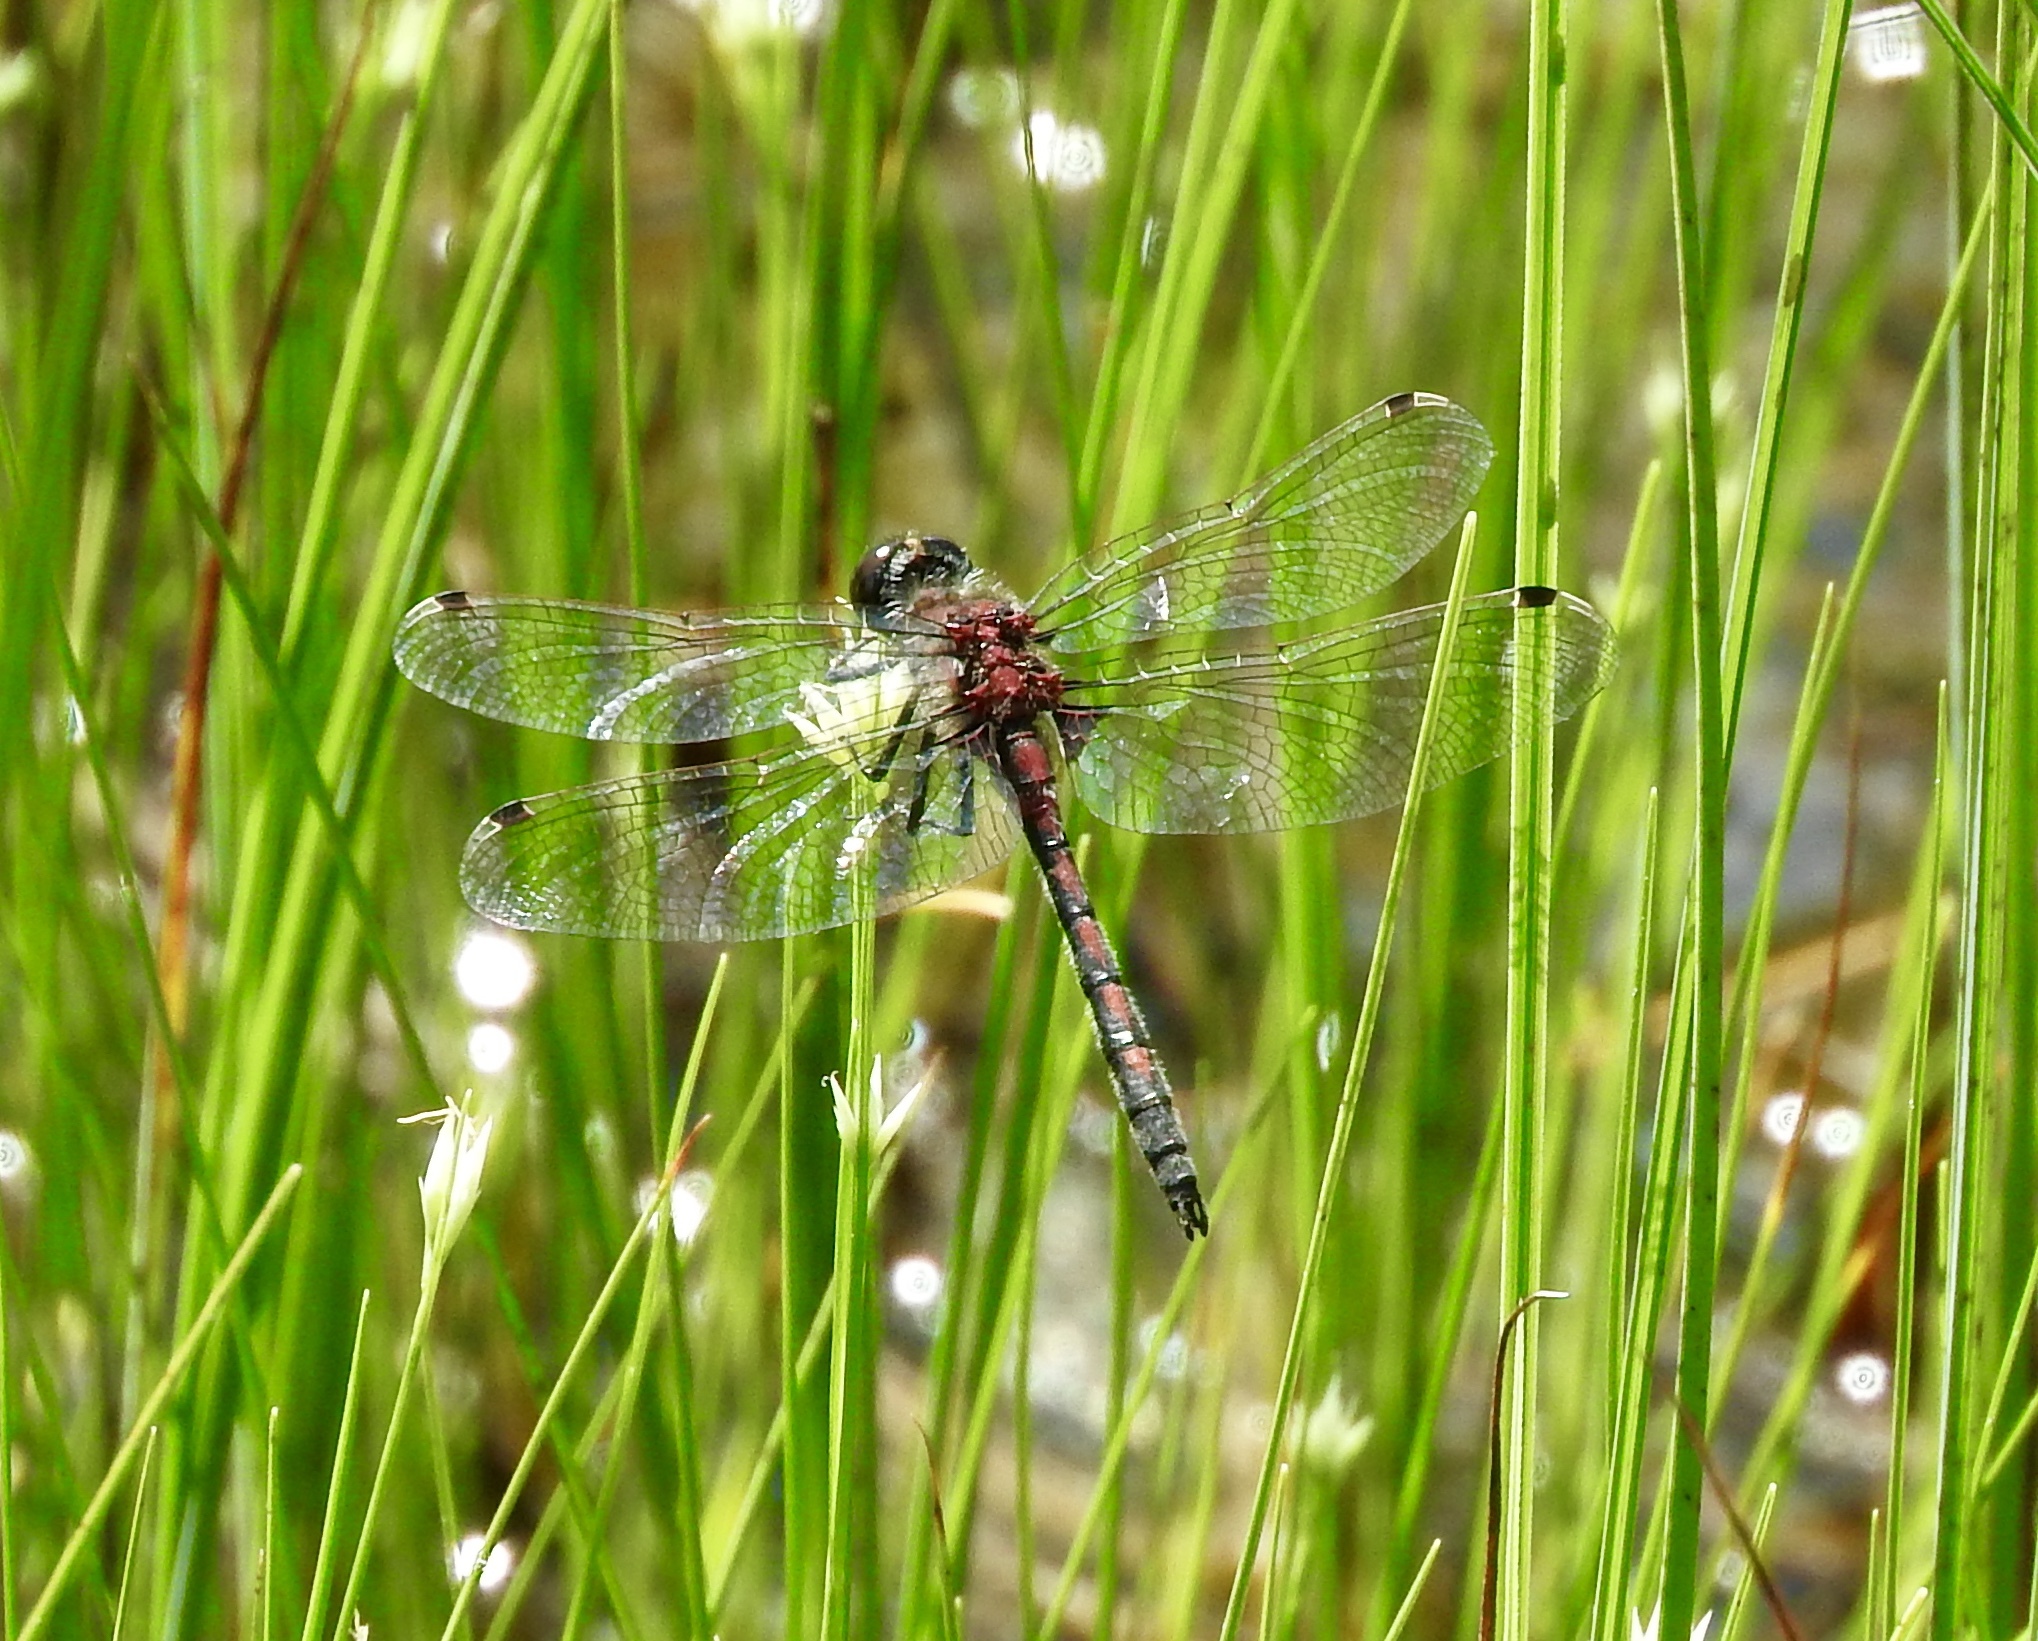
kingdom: Animalia
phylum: Arthropoda
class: Insecta
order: Odonata
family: Libellulidae
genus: Leucorrhinia
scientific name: Leucorrhinia hudsonica
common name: Hudsonian whiteface
